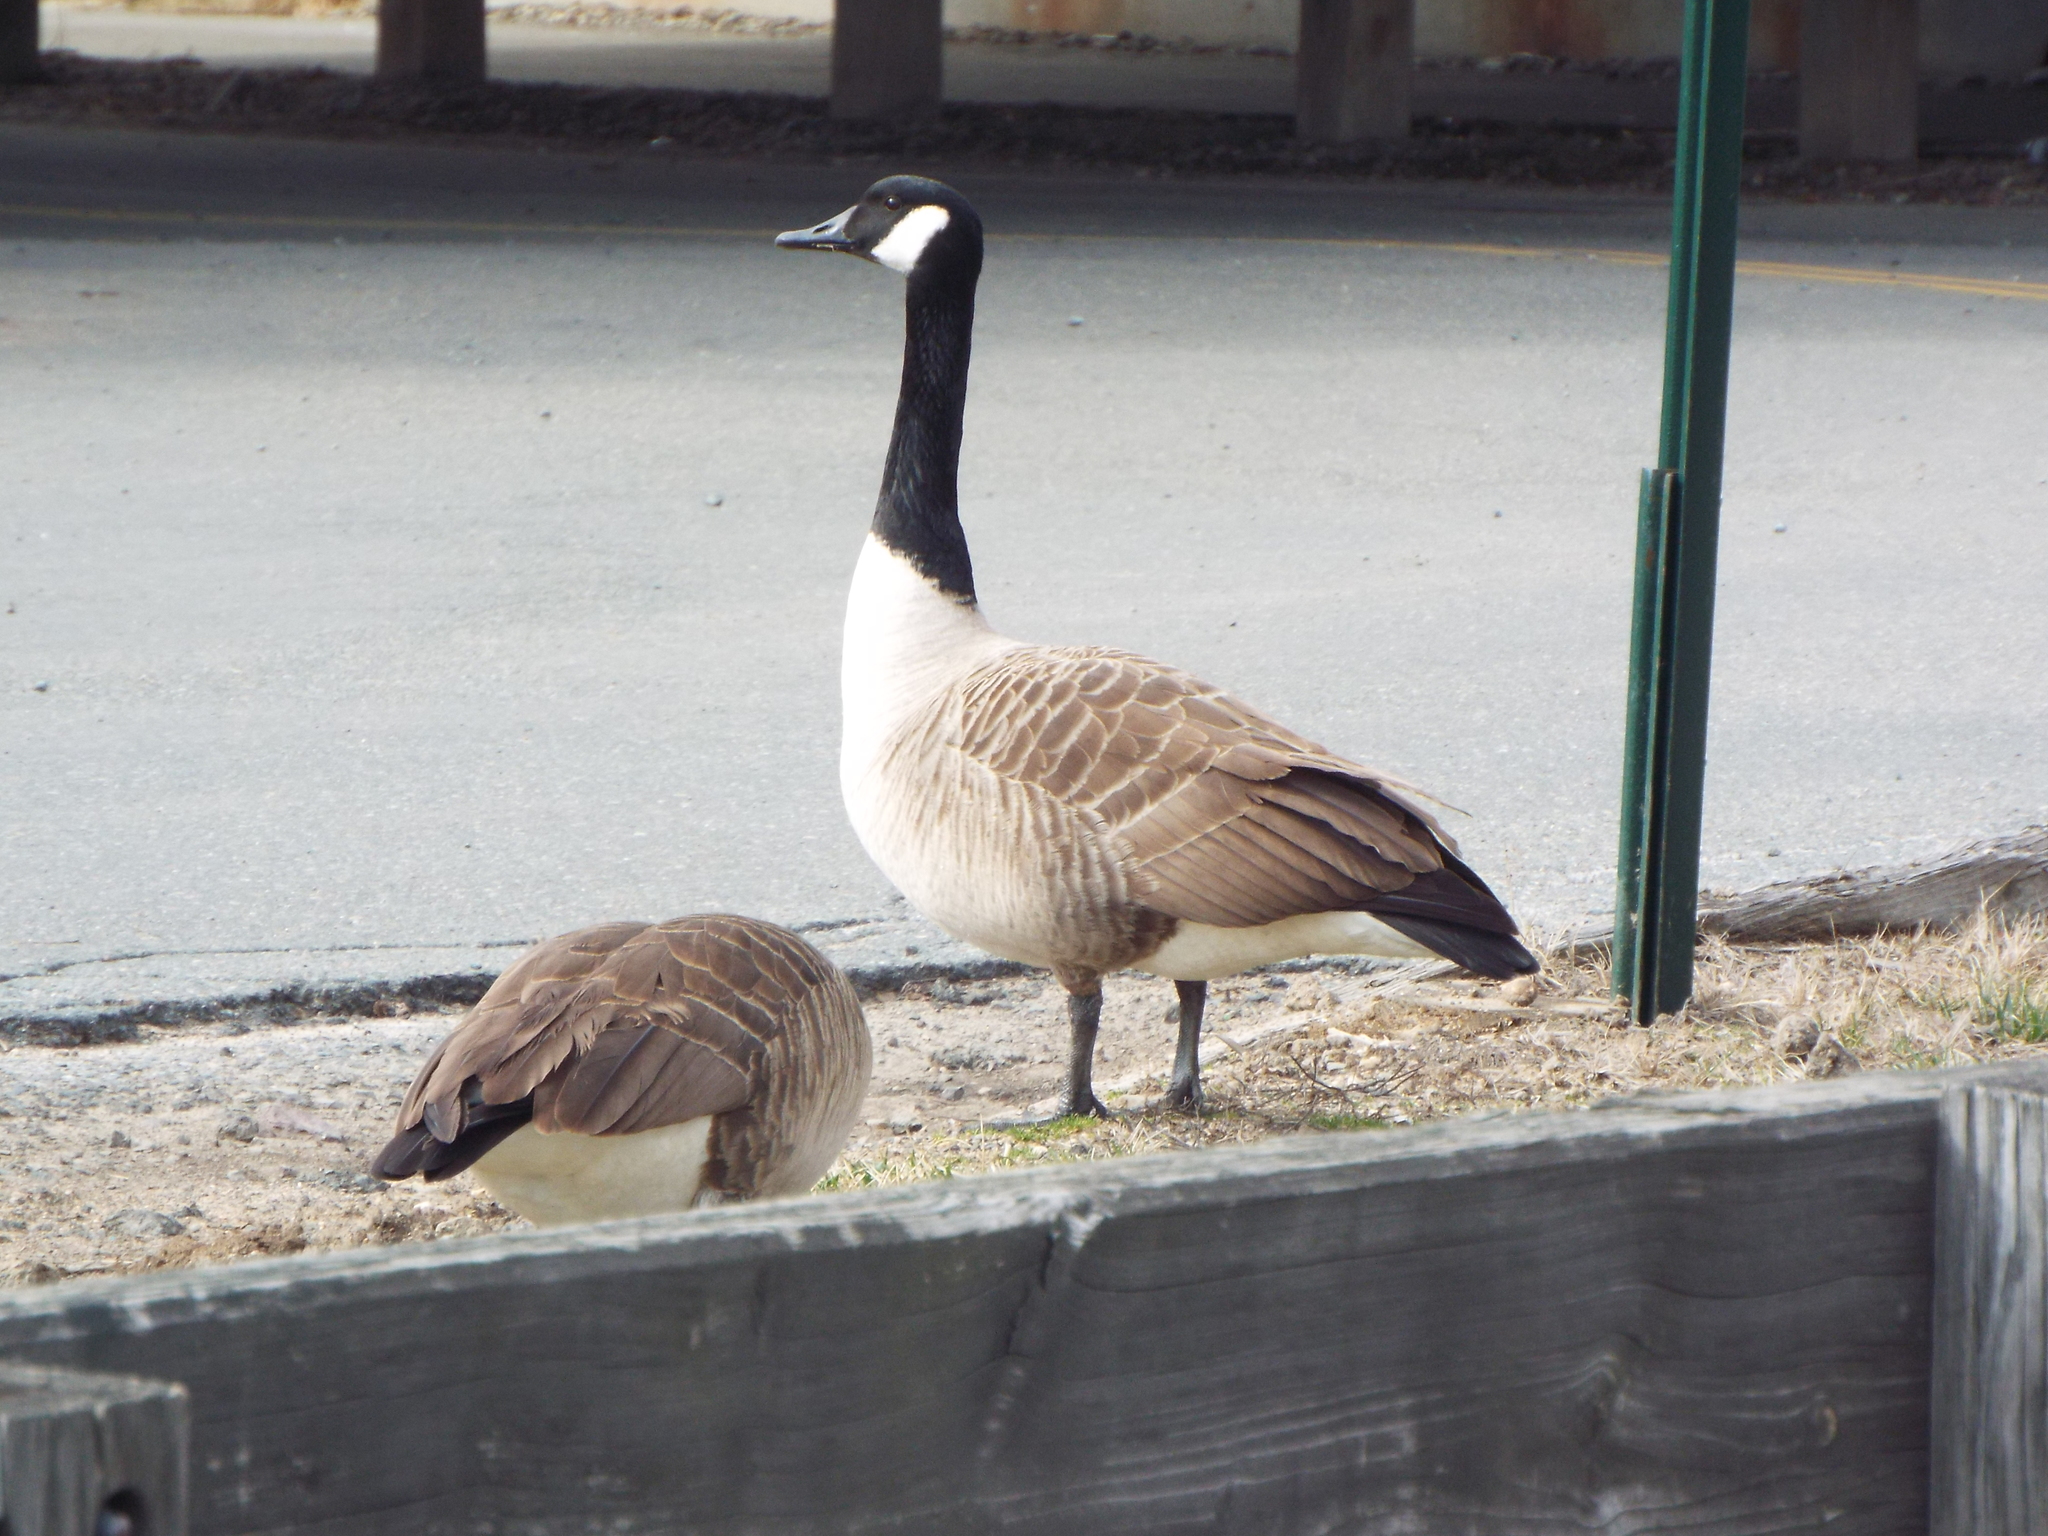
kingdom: Animalia
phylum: Chordata
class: Aves
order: Anseriformes
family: Anatidae
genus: Branta
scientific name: Branta canadensis
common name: Canada goose
